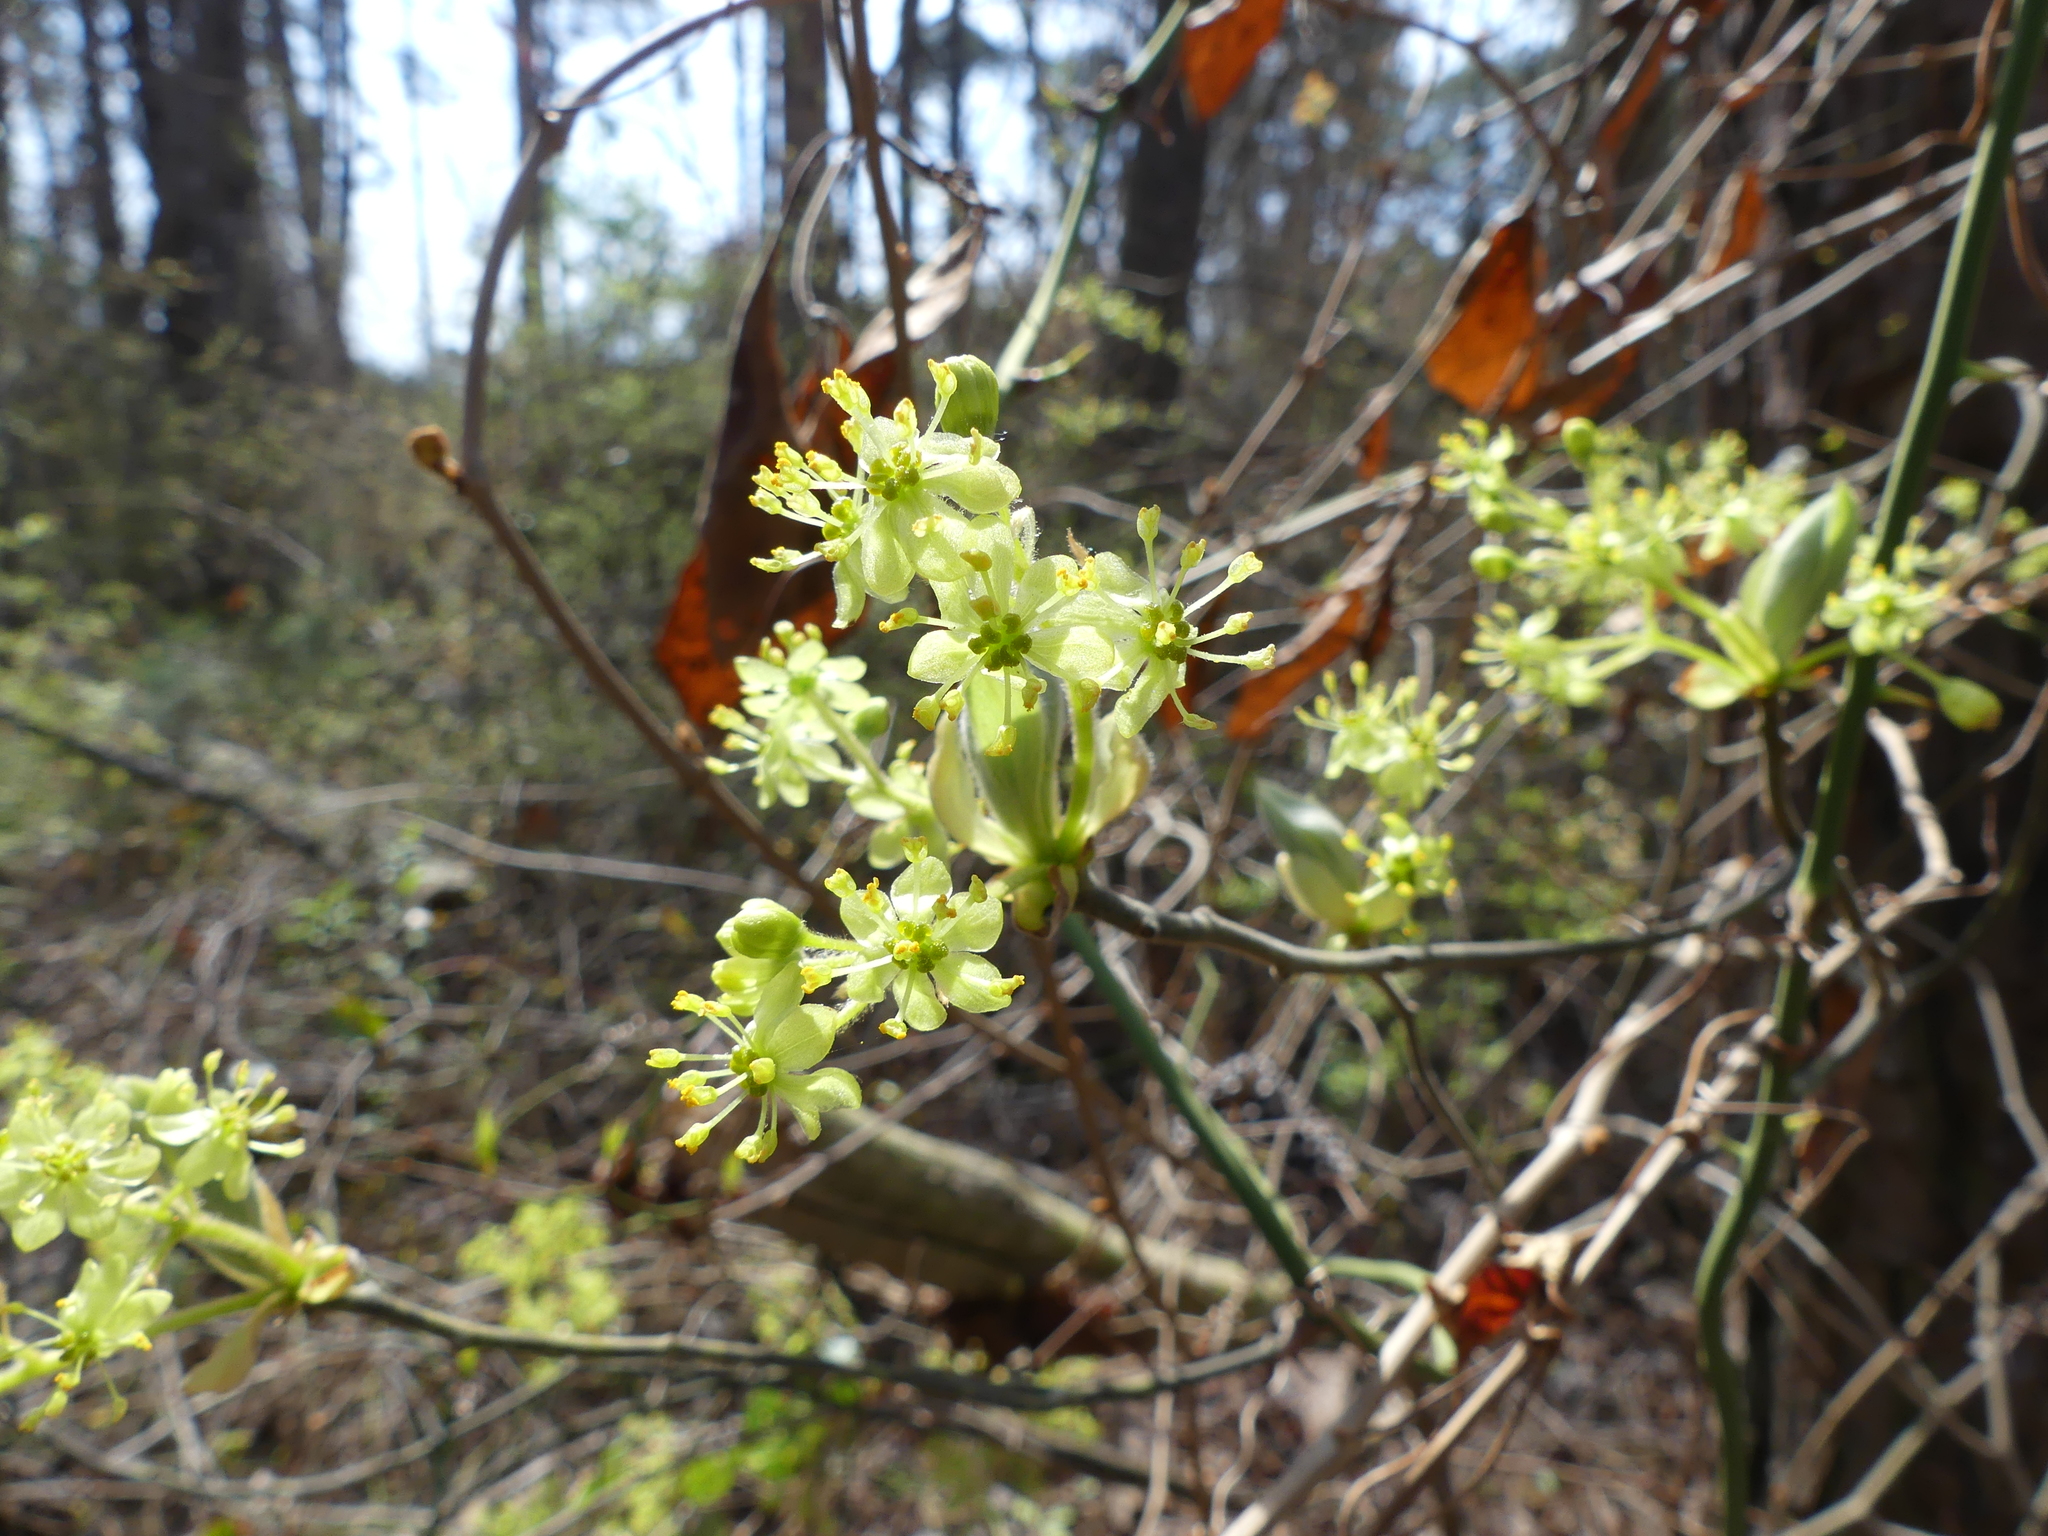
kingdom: Plantae
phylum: Tracheophyta
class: Magnoliopsida
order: Laurales
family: Lauraceae
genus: Sassafras
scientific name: Sassafras albidum
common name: Sassafras
